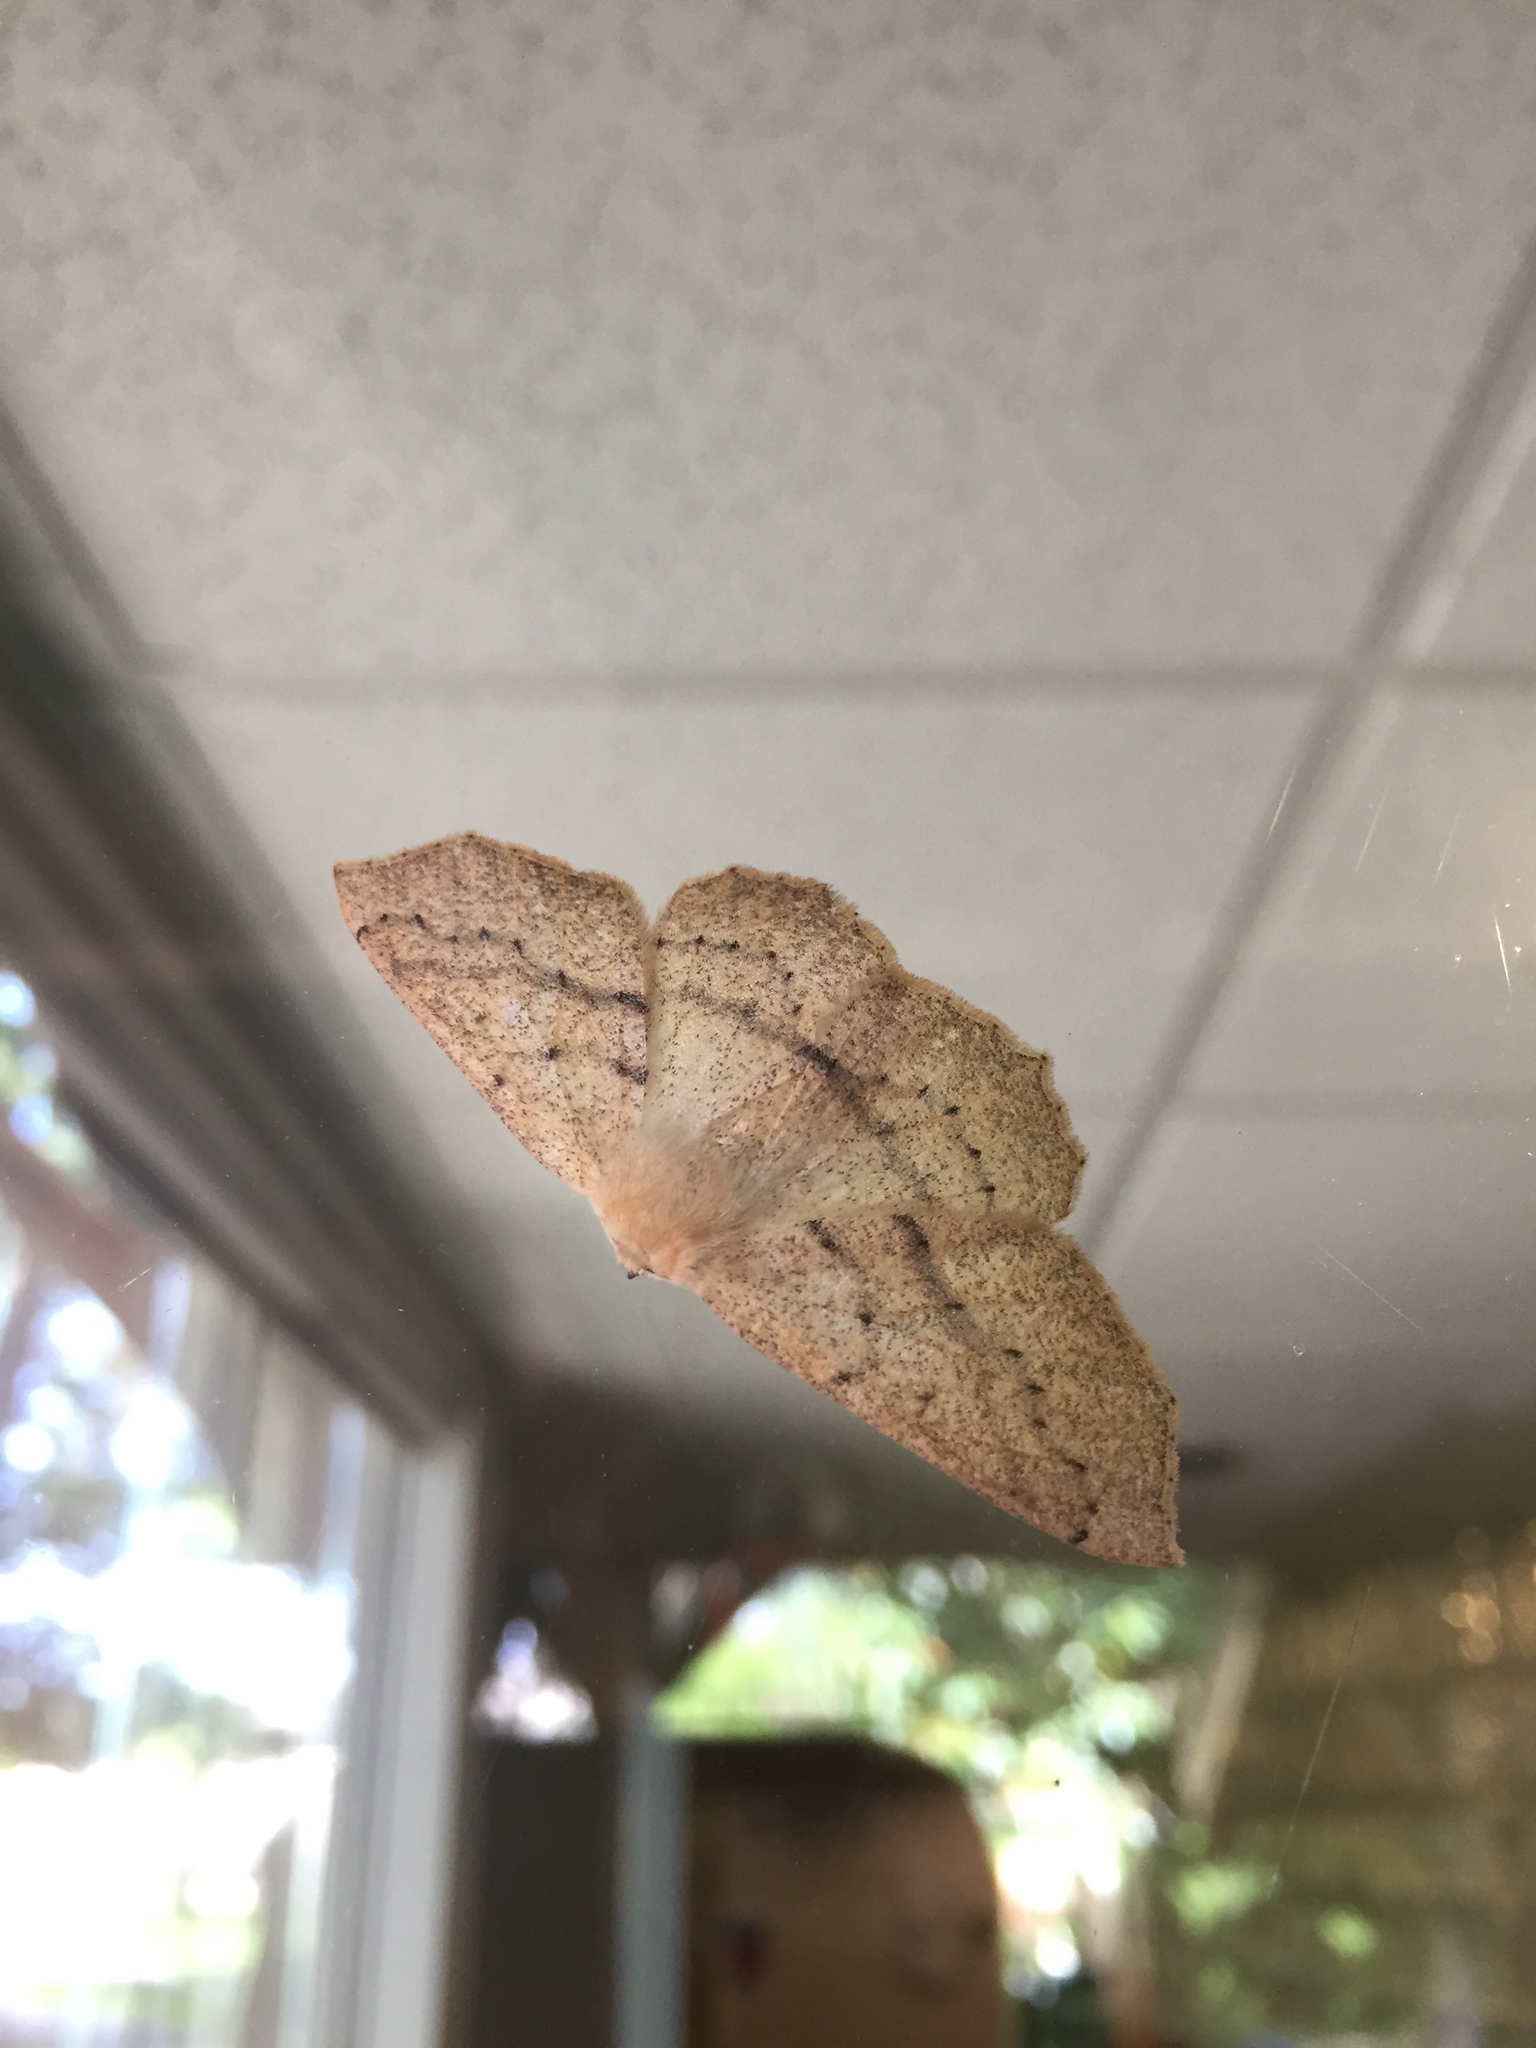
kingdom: Animalia
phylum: Arthropoda
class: Insecta
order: Lepidoptera
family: Geometridae
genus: Sabulodes
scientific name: Sabulodes aegrotata
